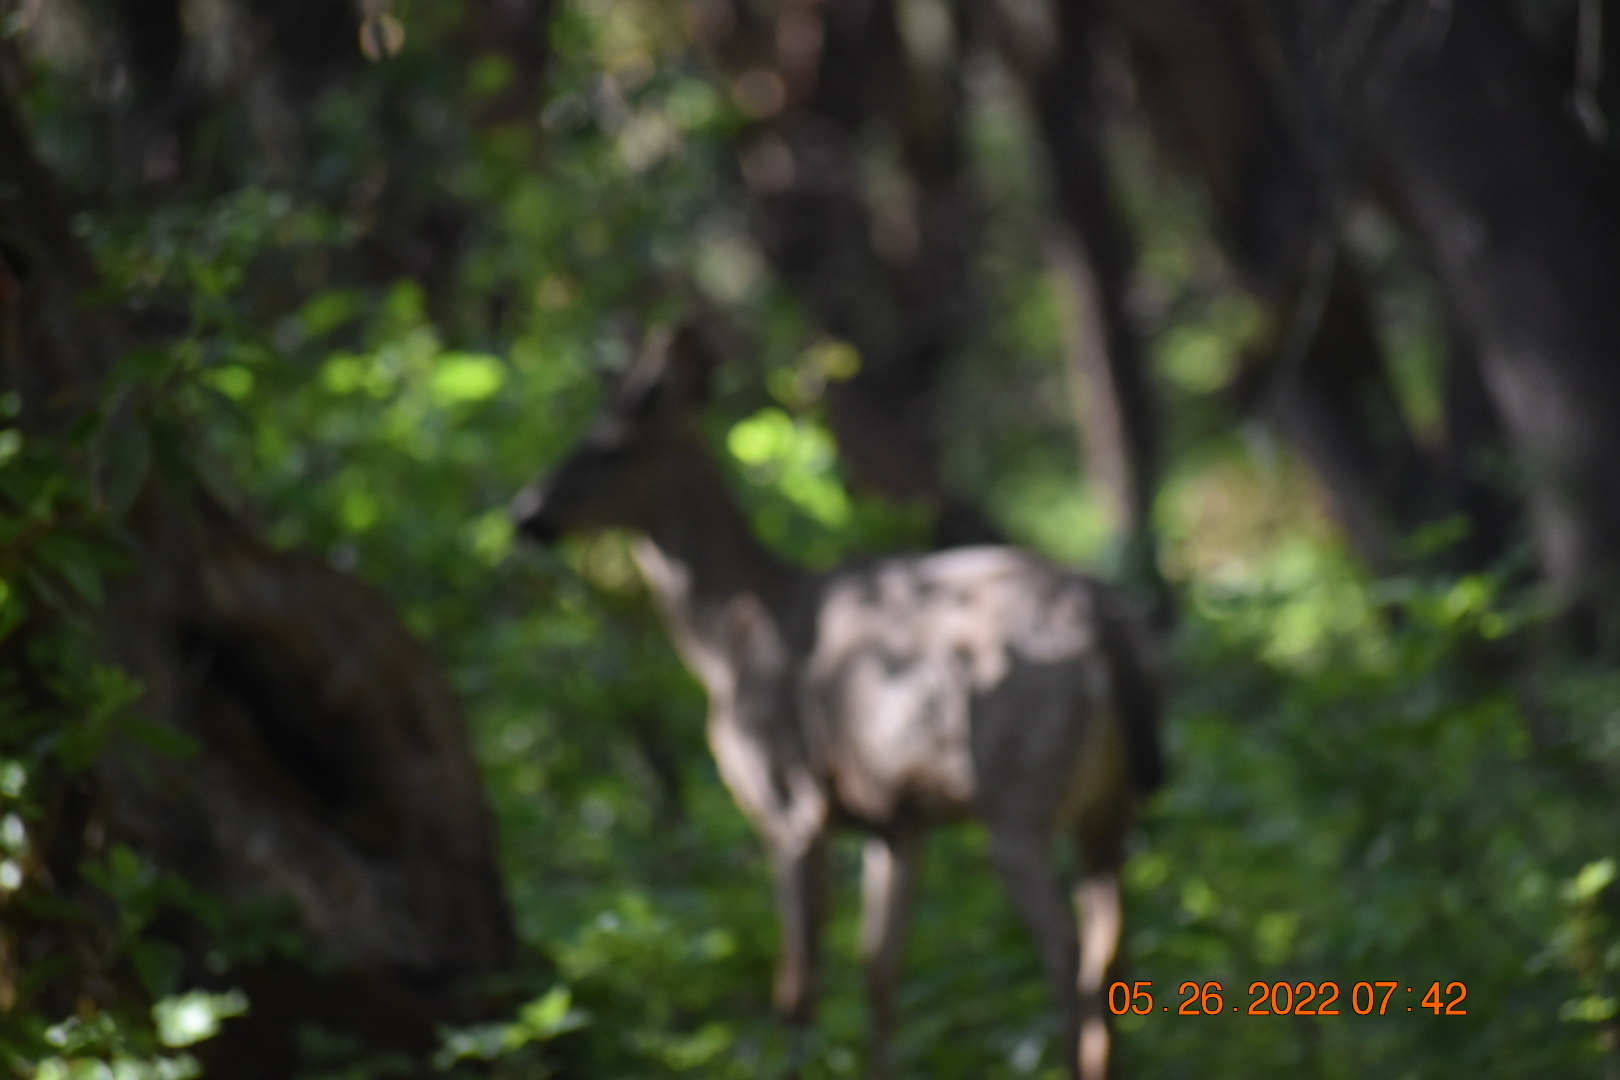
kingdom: Animalia
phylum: Chordata
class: Mammalia
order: Artiodactyla
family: Cervidae
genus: Odocoileus
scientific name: Odocoileus hemionus
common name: Mule deer
